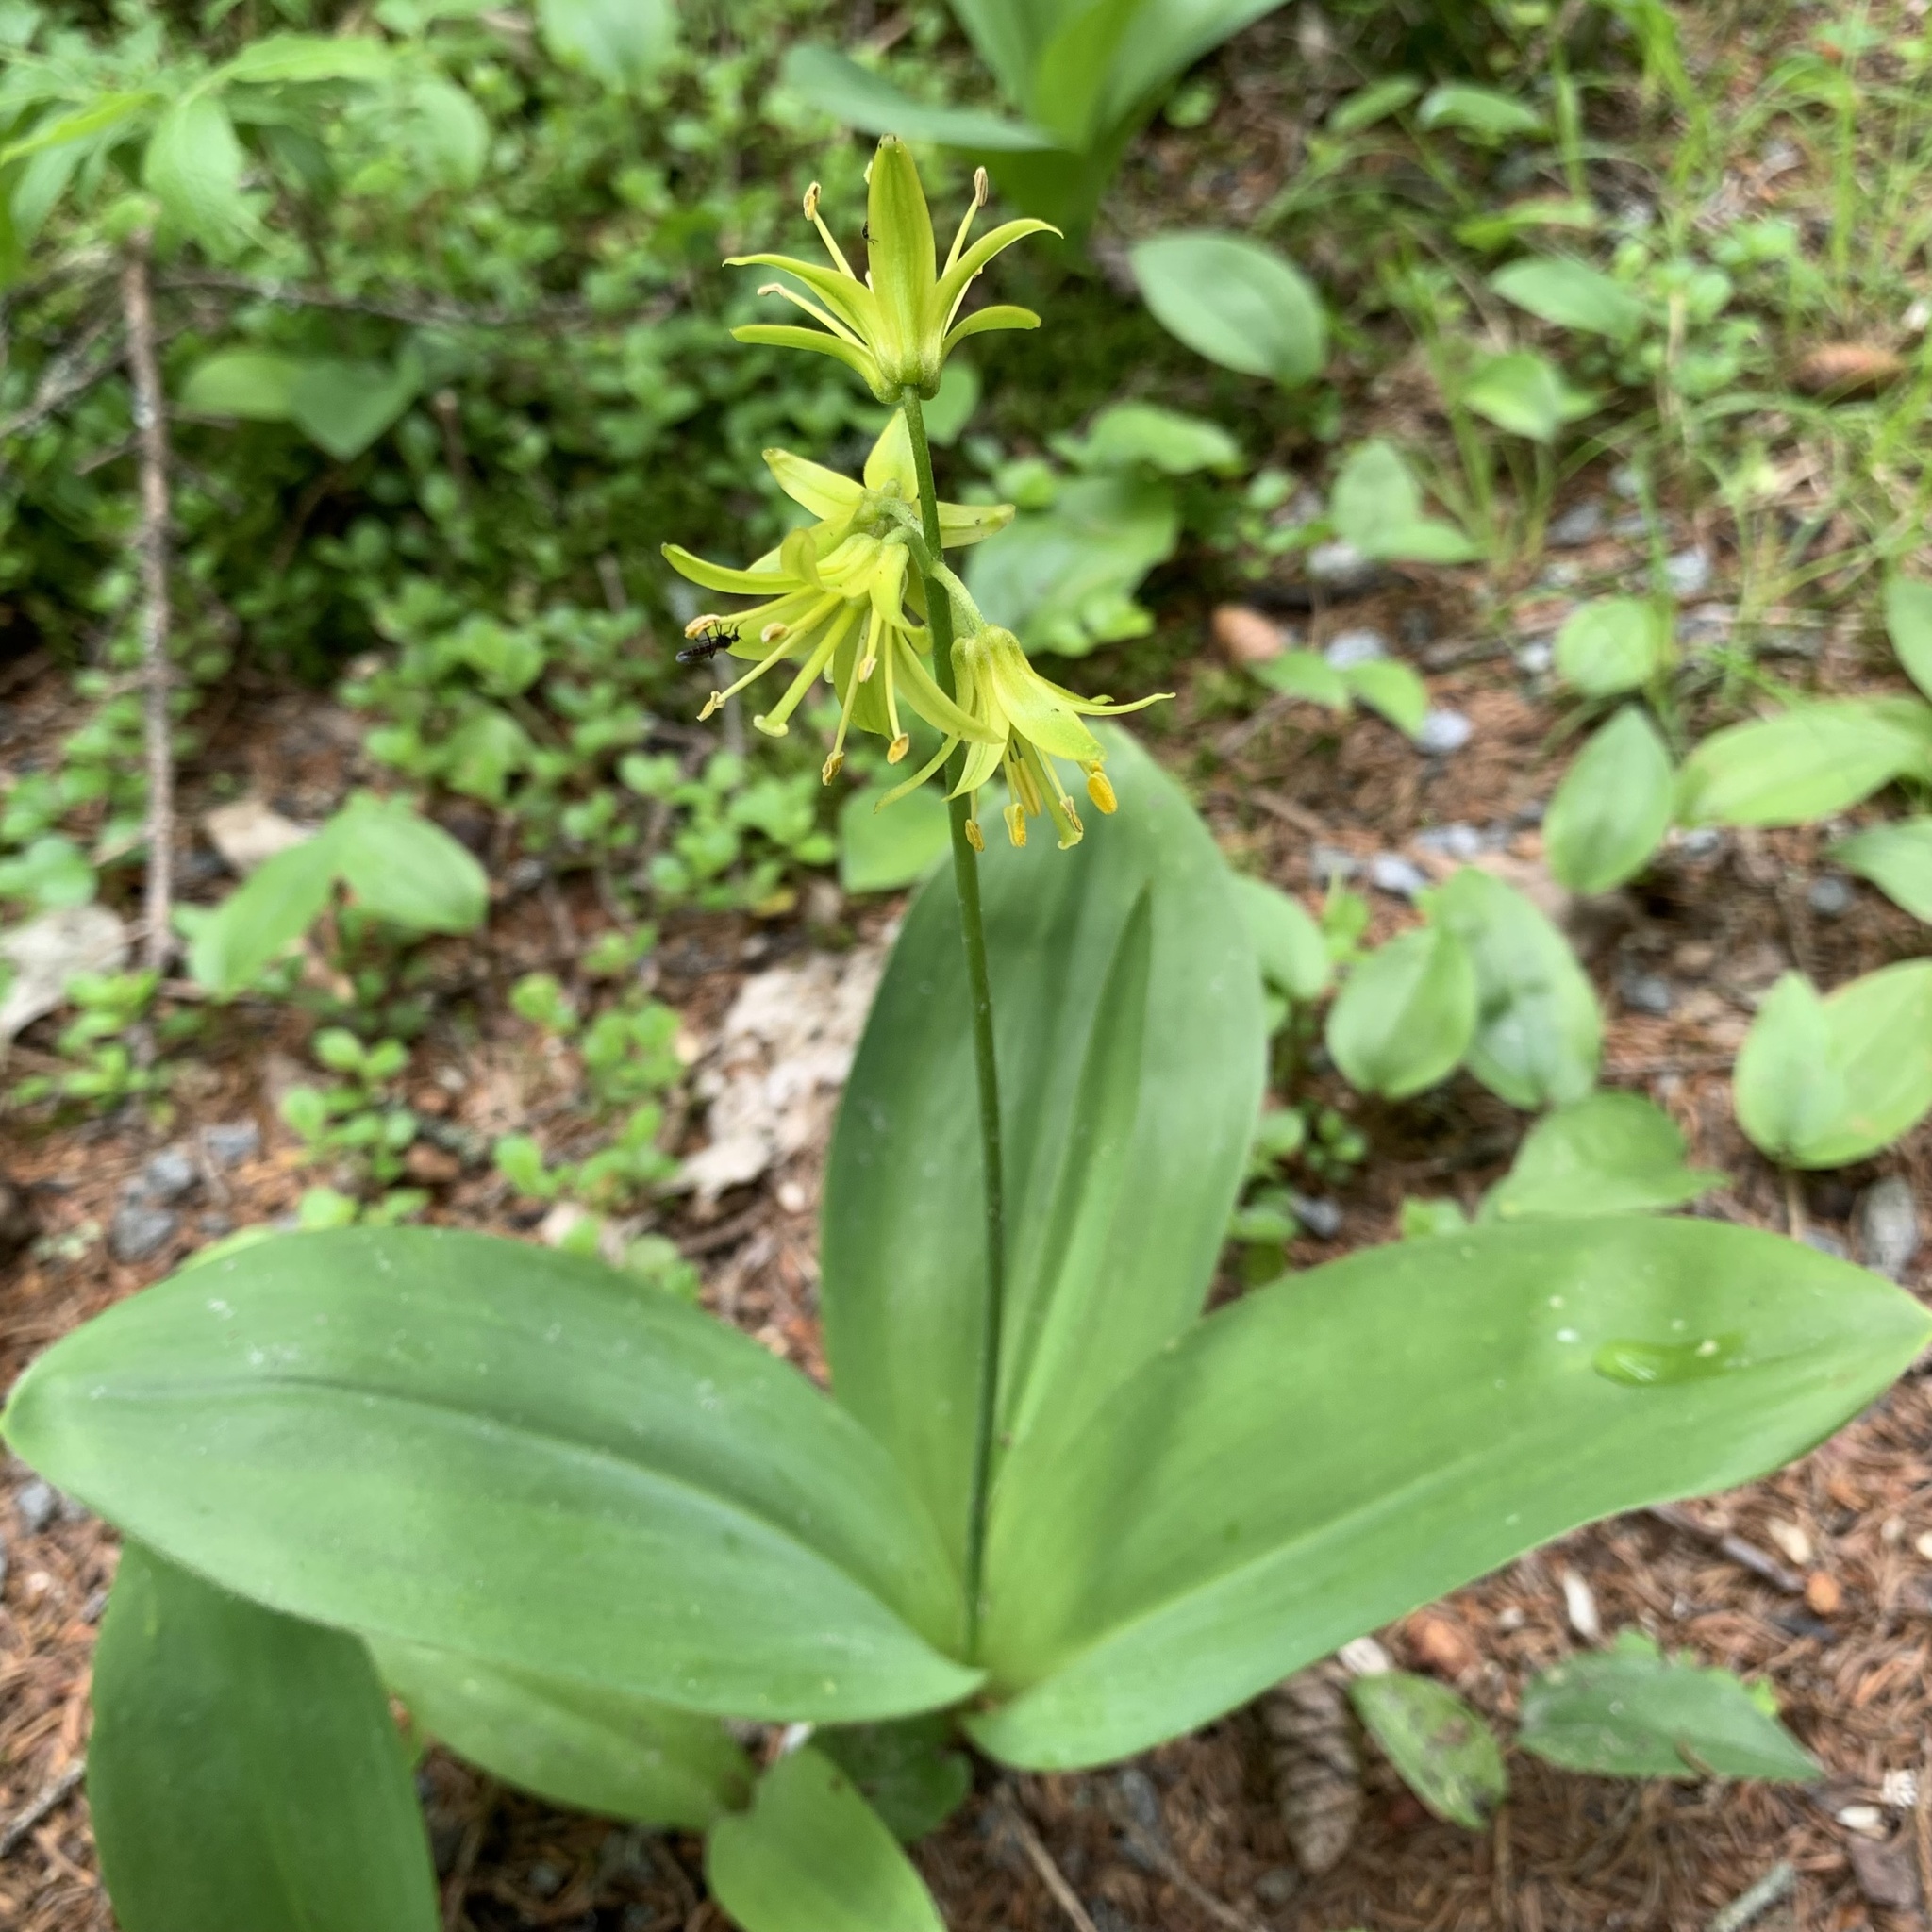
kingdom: Plantae
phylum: Tracheophyta
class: Liliopsida
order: Liliales
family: Liliaceae
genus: Clintonia
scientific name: Clintonia borealis
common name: Yellow clintonia
